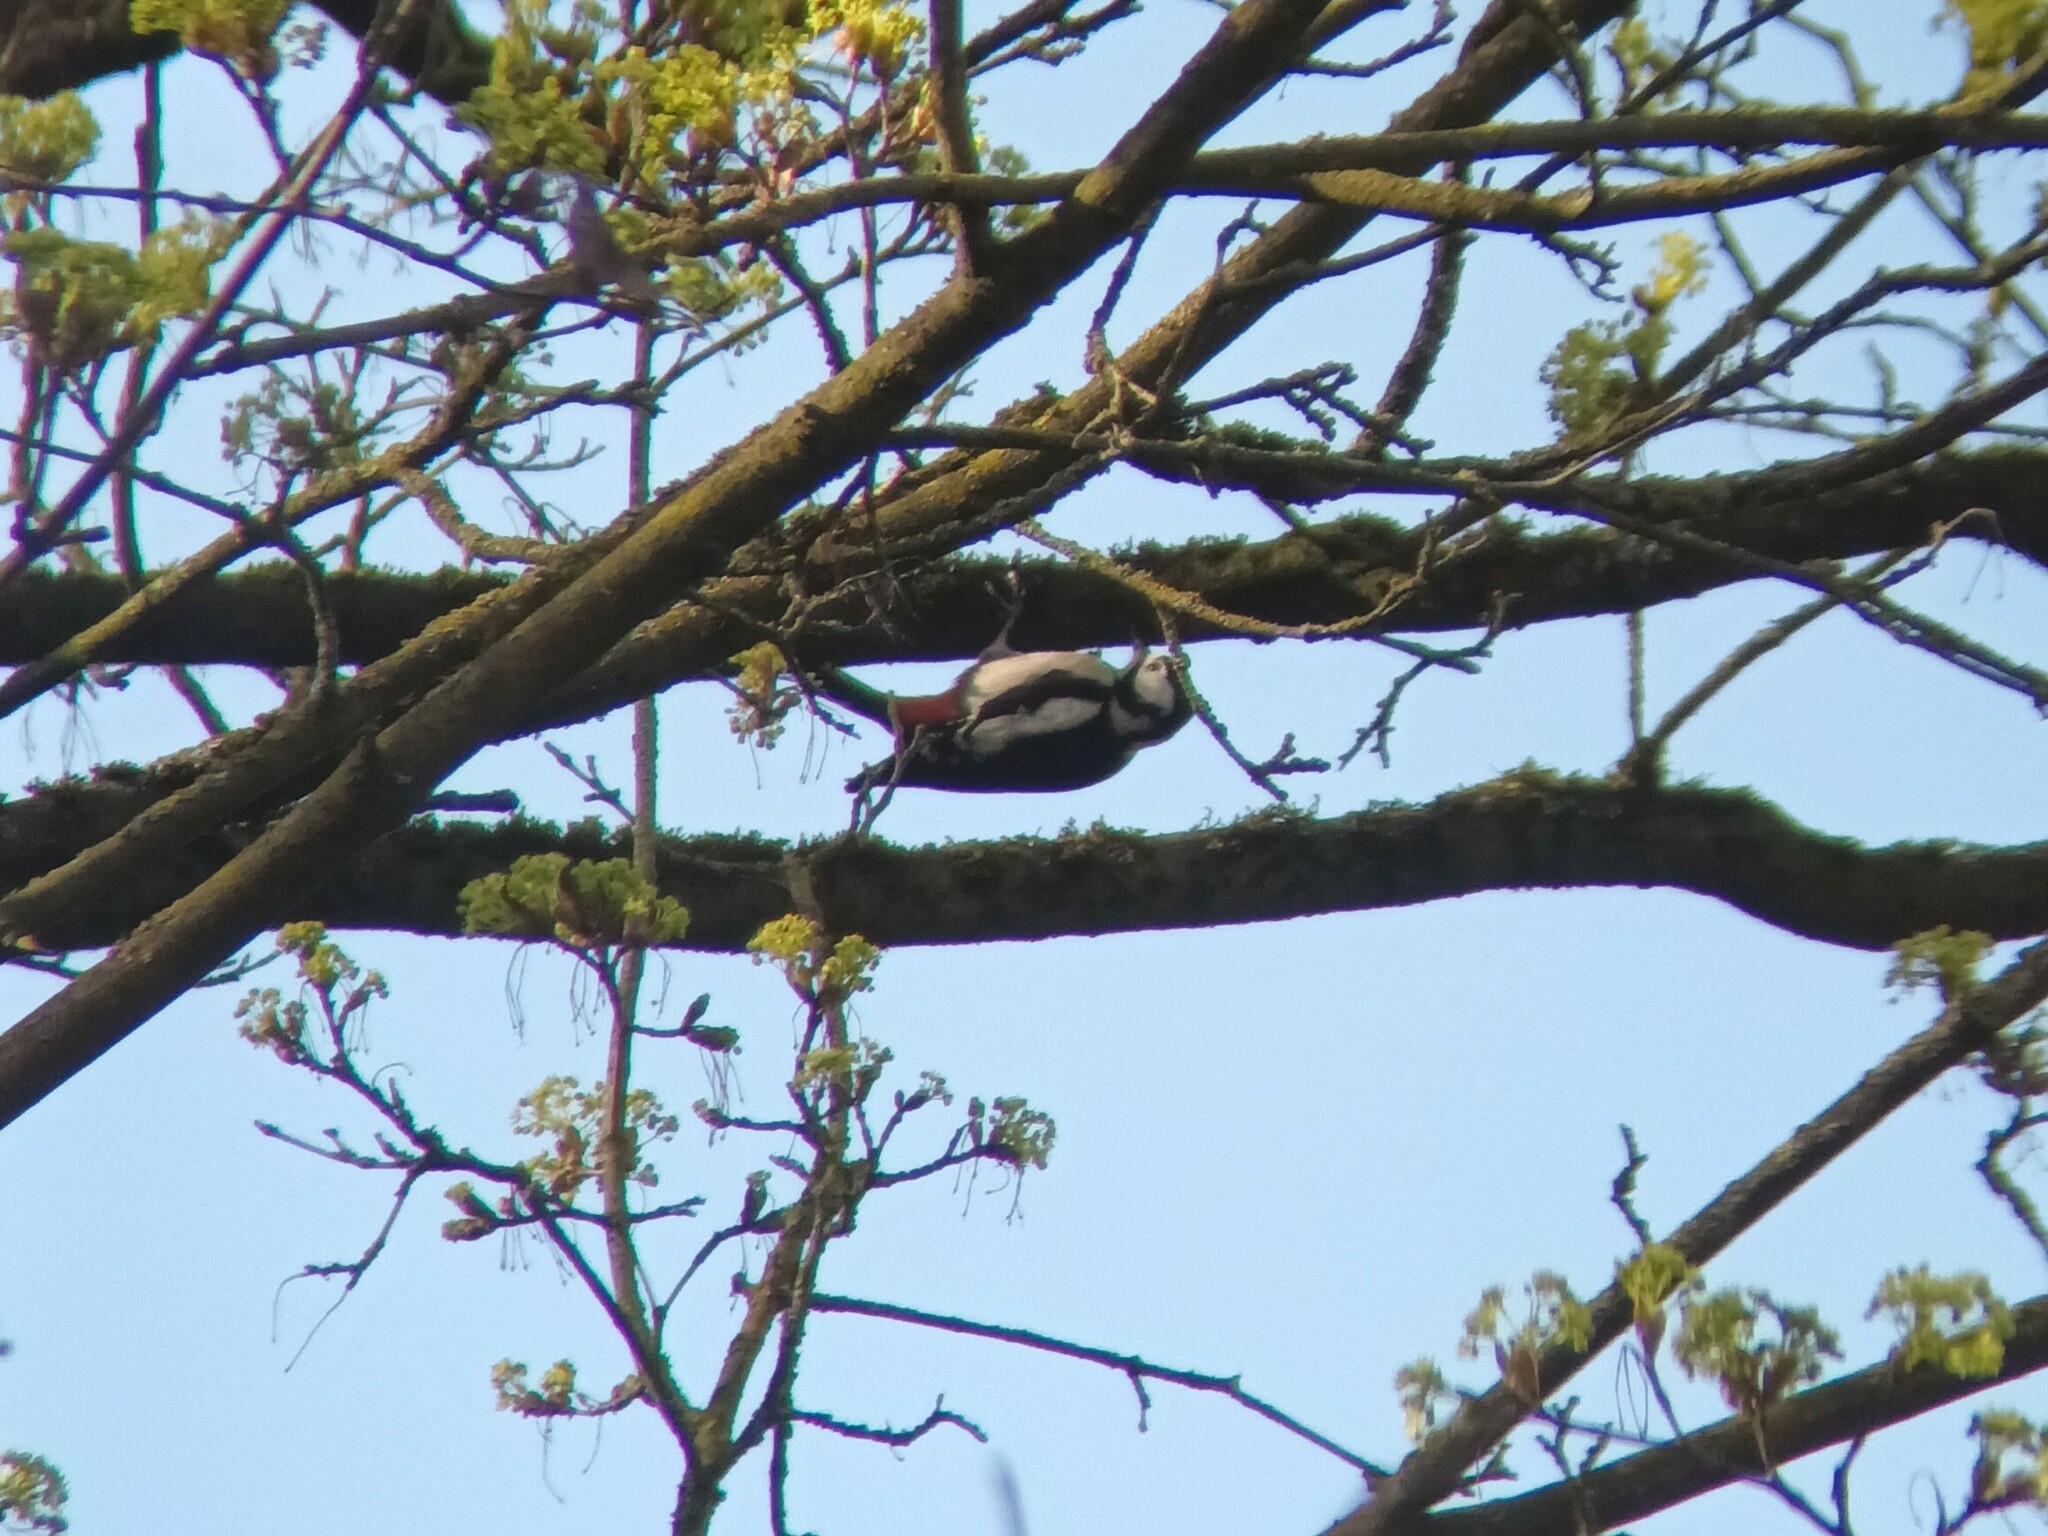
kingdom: Animalia
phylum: Chordata
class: Aves
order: Piciformes
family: Picidae
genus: Dendrocopos
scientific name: Dendrocopos major
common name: Great spotted woodpecker
